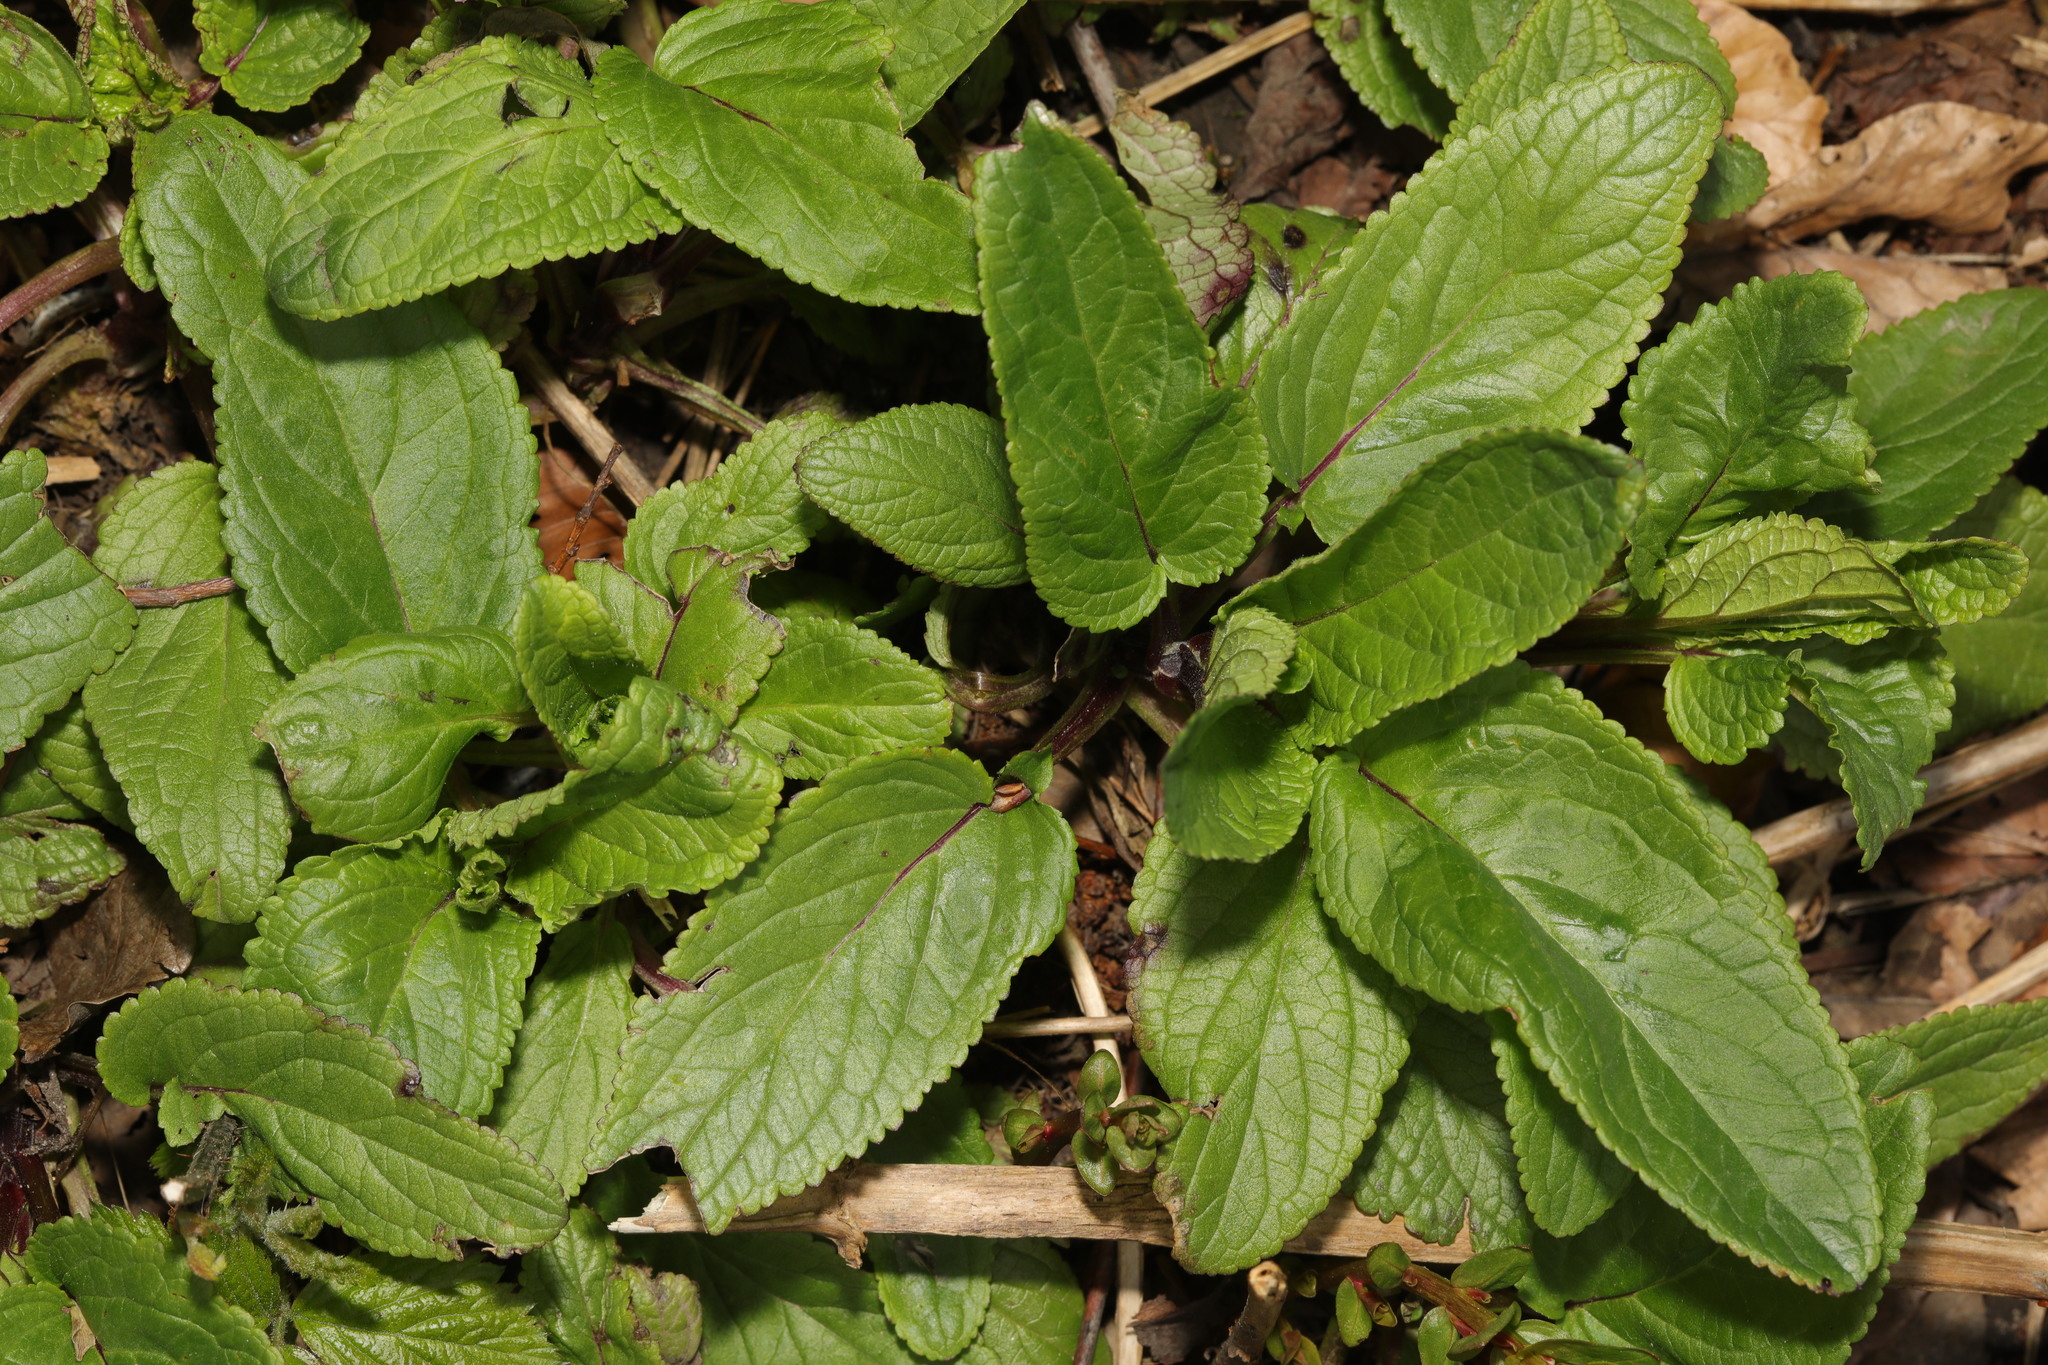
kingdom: Plantae
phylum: Tracheophyta
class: Magnoliopsida
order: Lamiales
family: Scrophulariaceae
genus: Scrophularia
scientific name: Scrophularia auriculata
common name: Water betony
